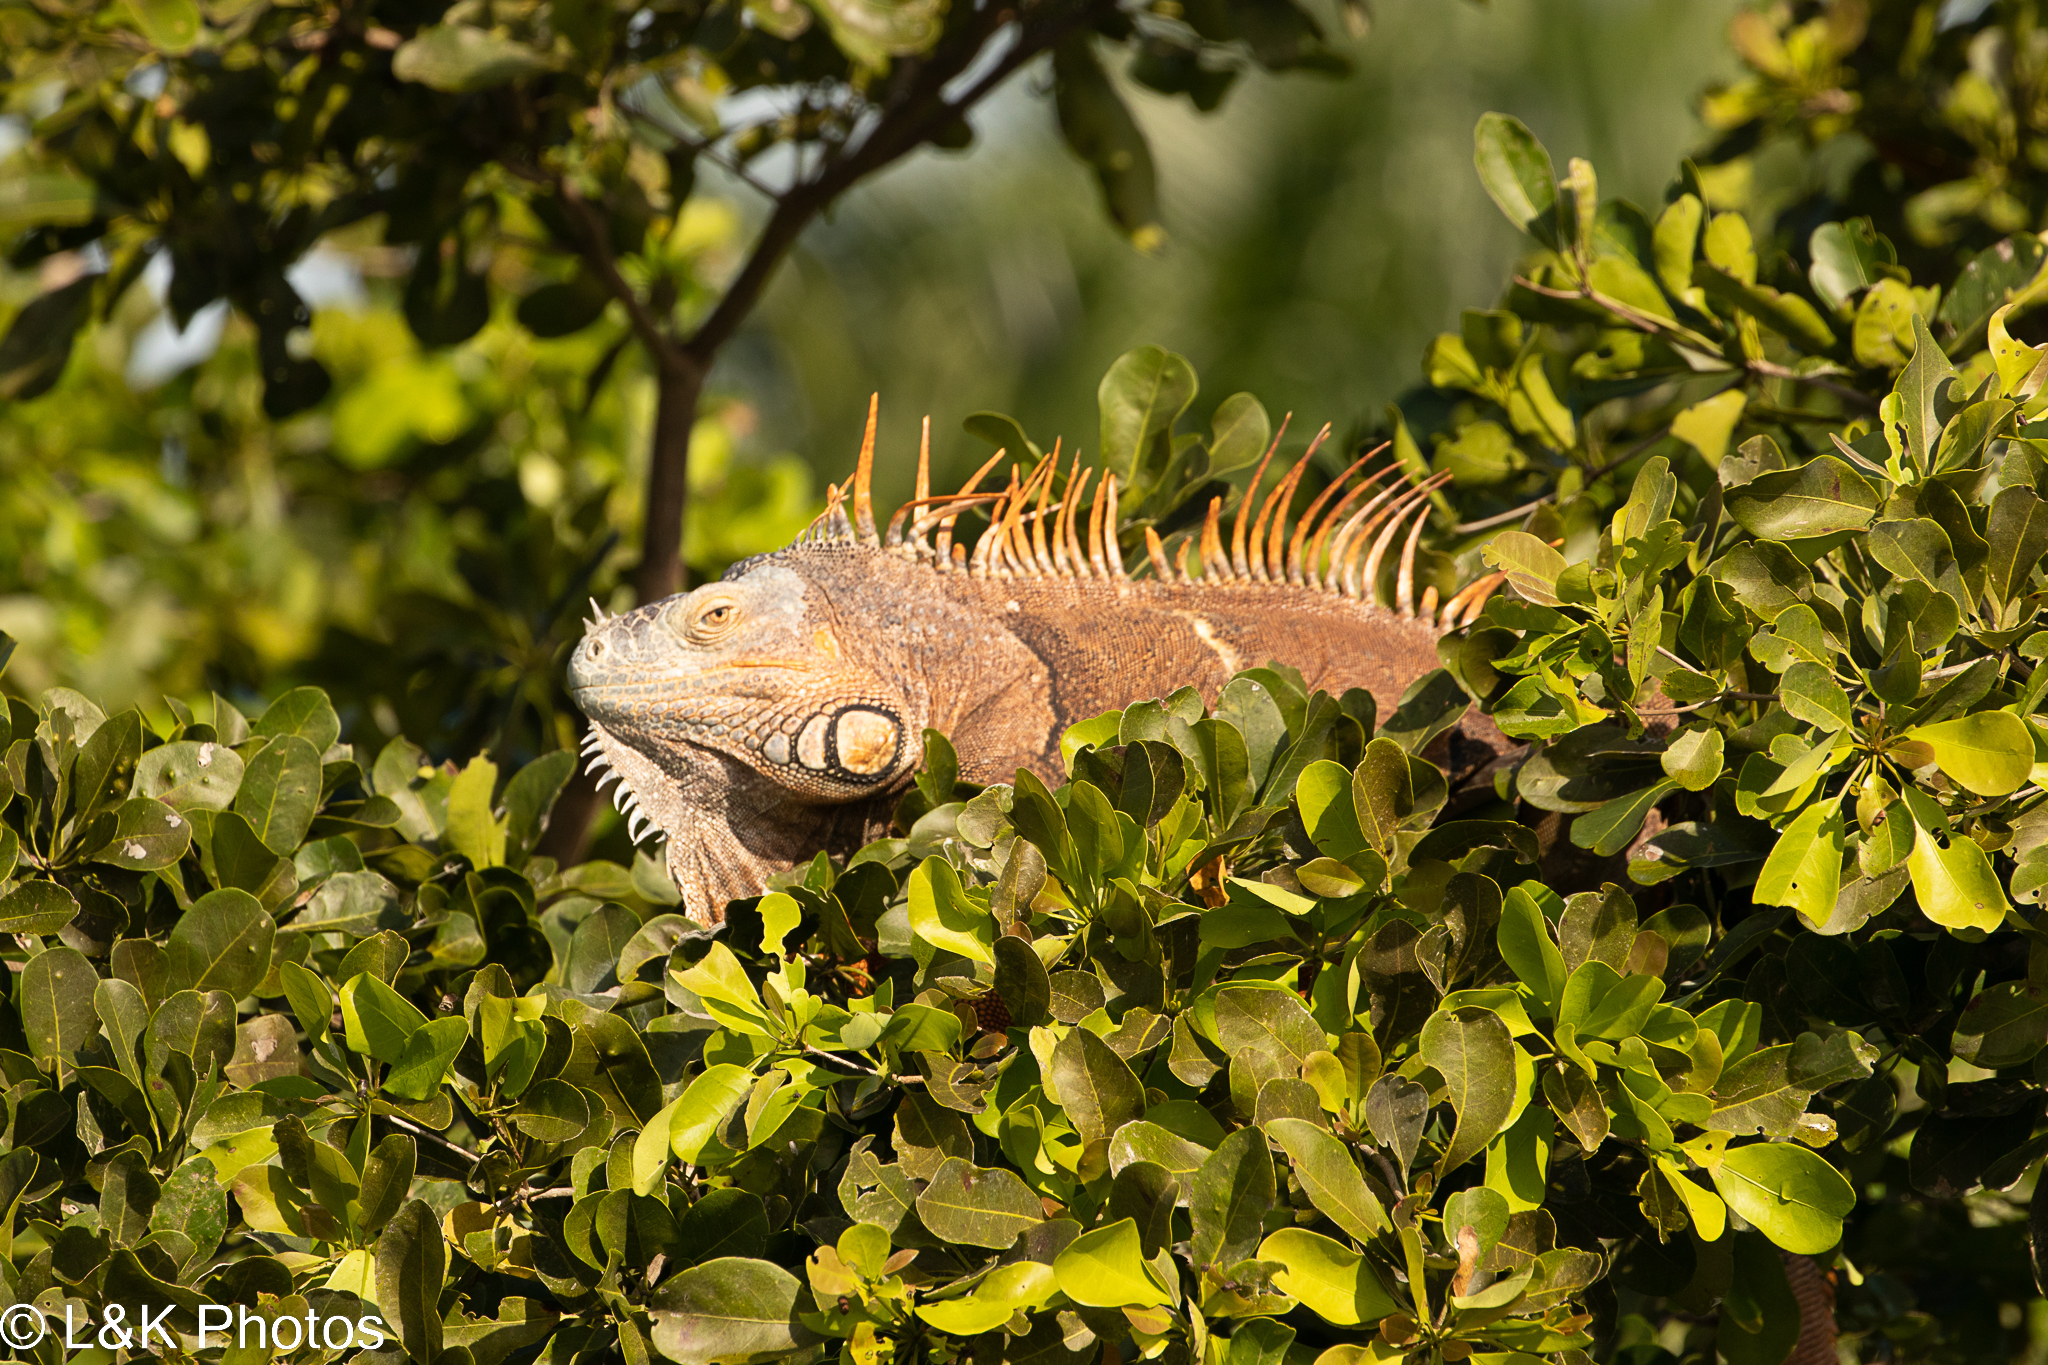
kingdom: Animalia
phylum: Chordata
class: Squamata
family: Iguanidae
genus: Iguana
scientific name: Iguana iguana
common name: Green iguana
